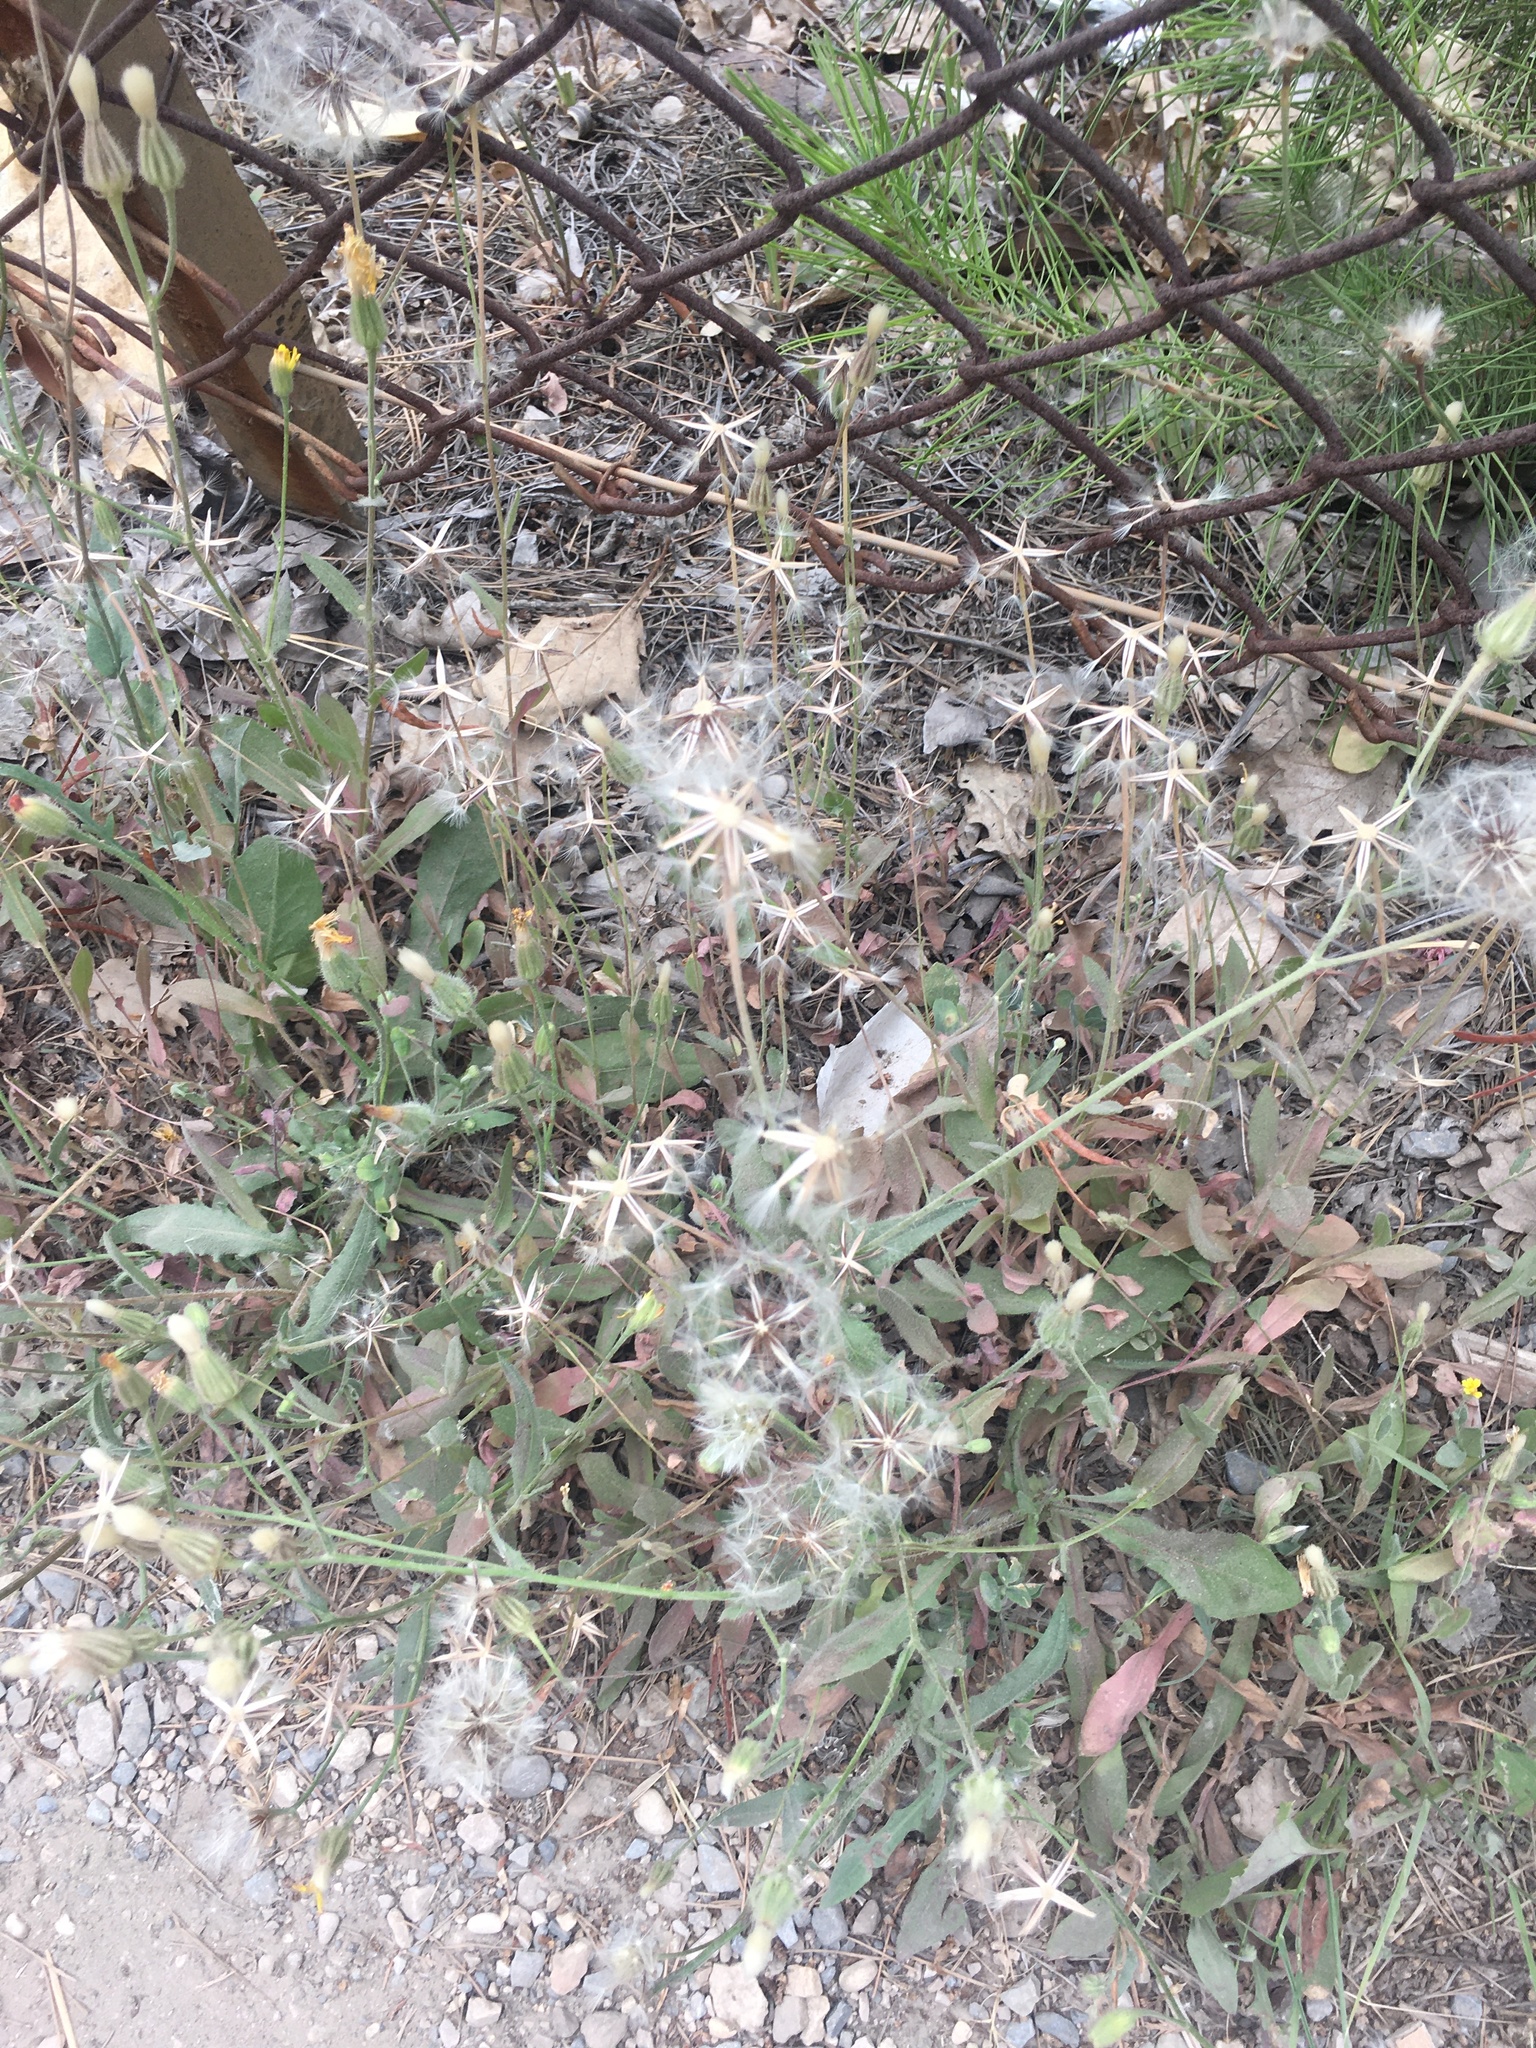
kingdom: Plantae
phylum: Tracheophyta
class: Magnoliopsida
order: Asterales
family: Asteraceae
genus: Urospermum
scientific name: Urospermum picroides
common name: False hawkbit
